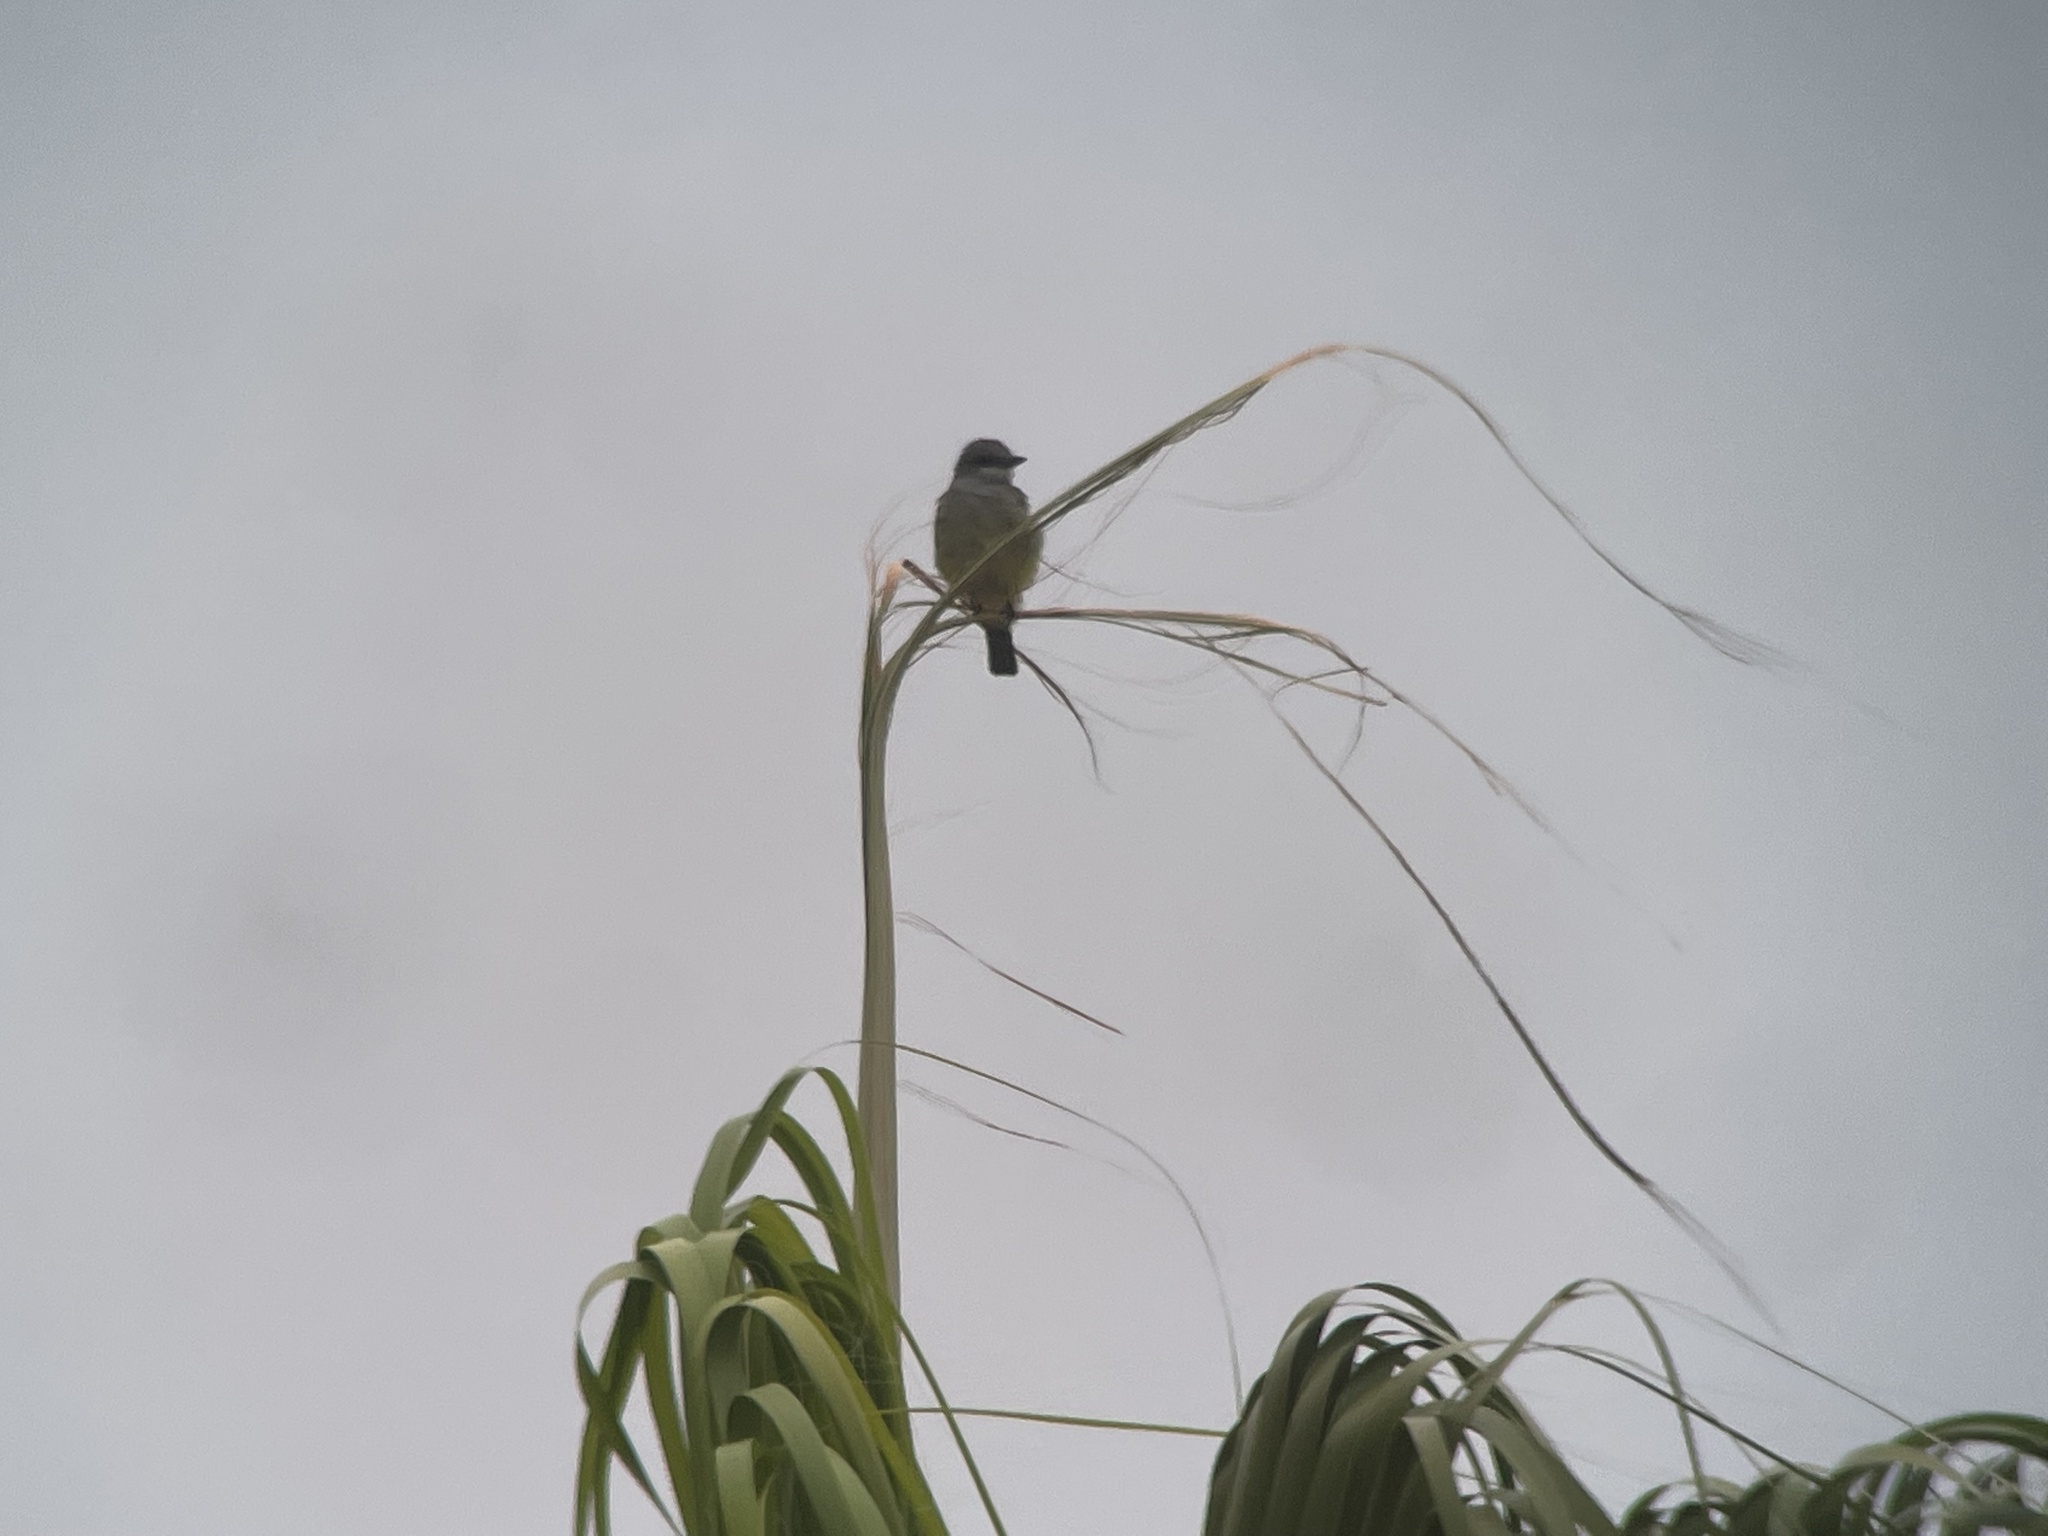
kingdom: Animalia
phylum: Chordata
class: Aves
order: Passeriformes
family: Tyrannidae
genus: Tyrannus
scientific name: Tyrannus vociferans
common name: Cassin's kingbird
